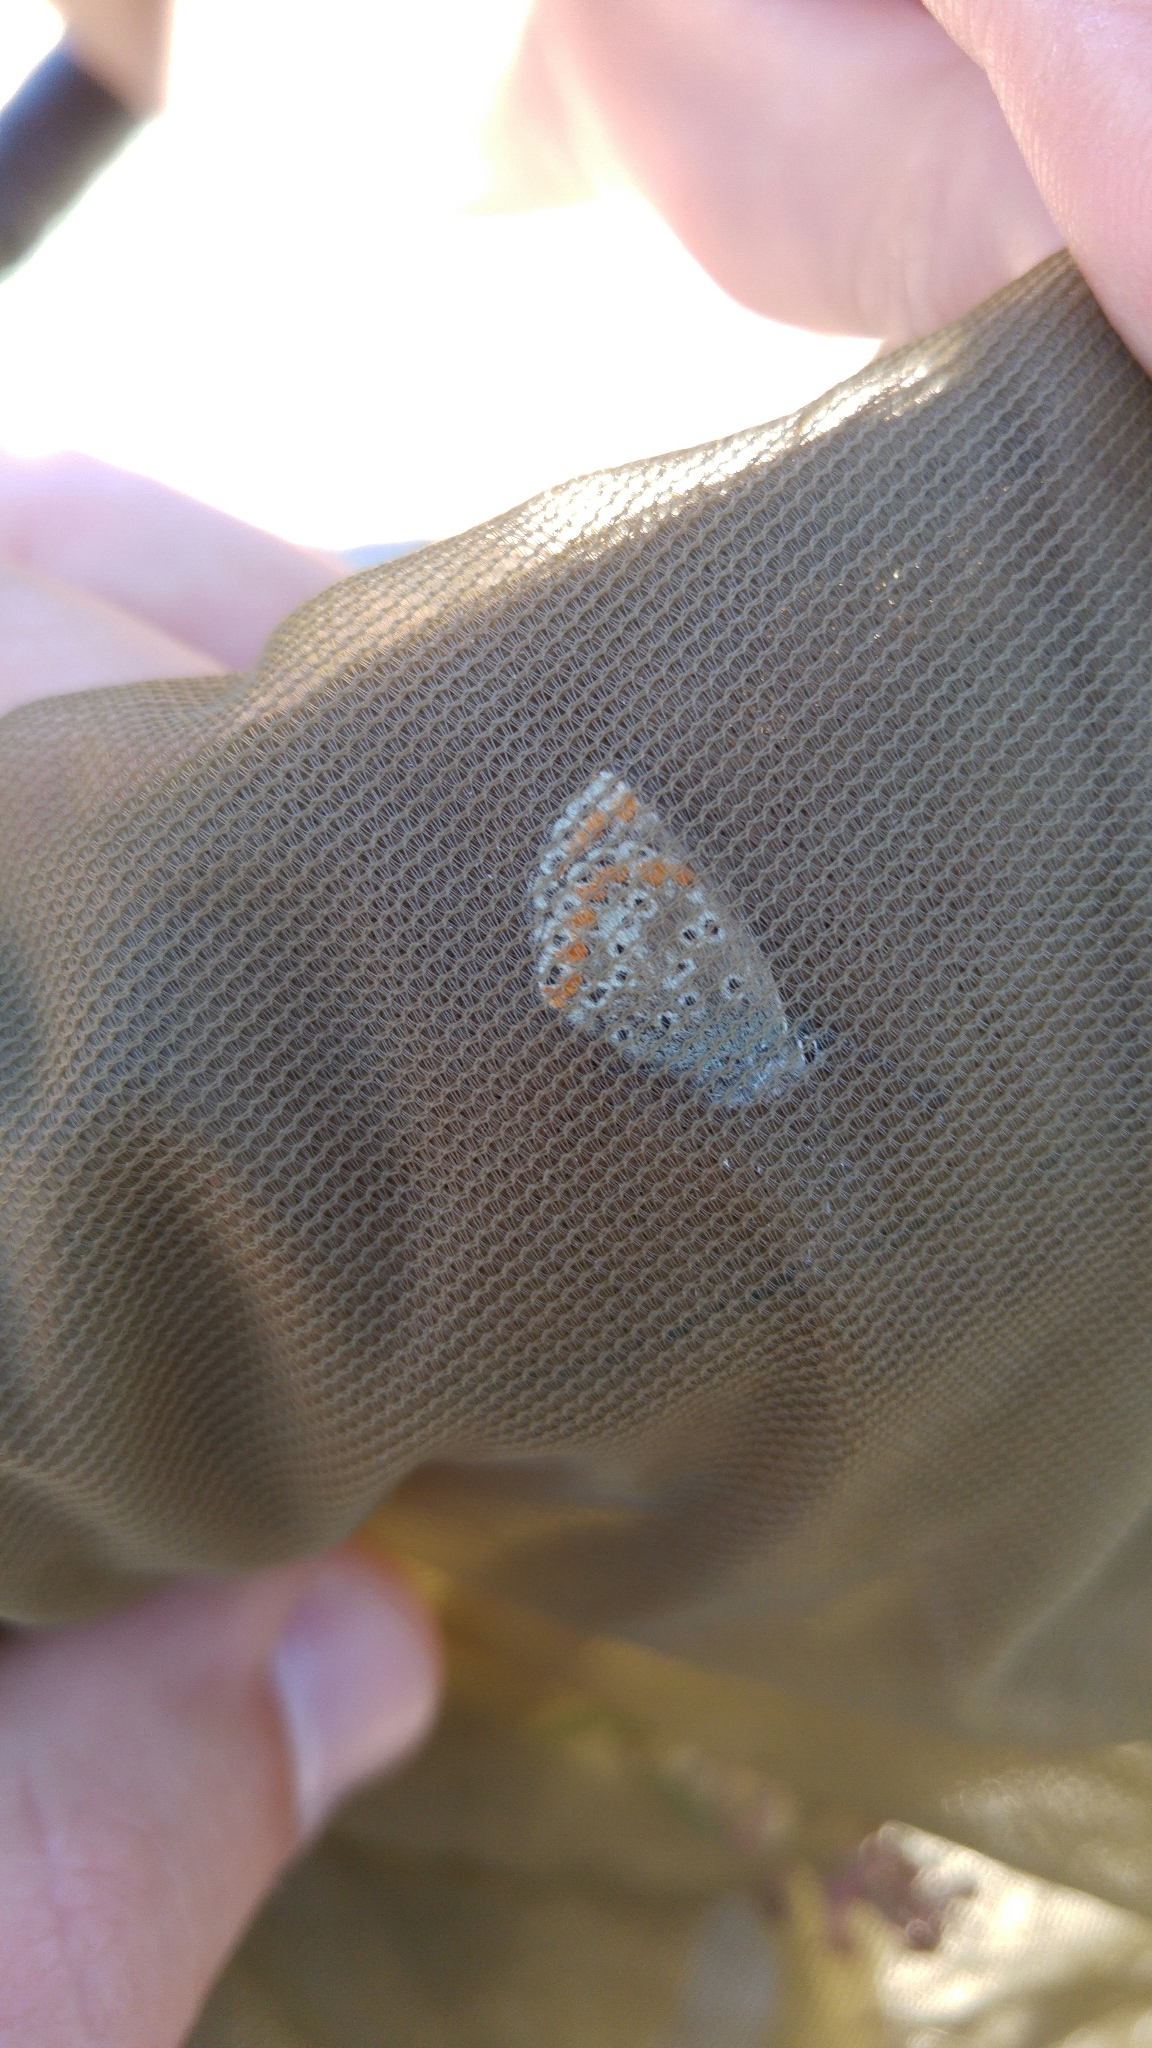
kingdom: Animalia
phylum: Arthropoda
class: Insecta
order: Lepidoptera
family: Lycaenidae
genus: Aricia
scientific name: Aricia cramera
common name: Eschscholtz´s brown  argus
